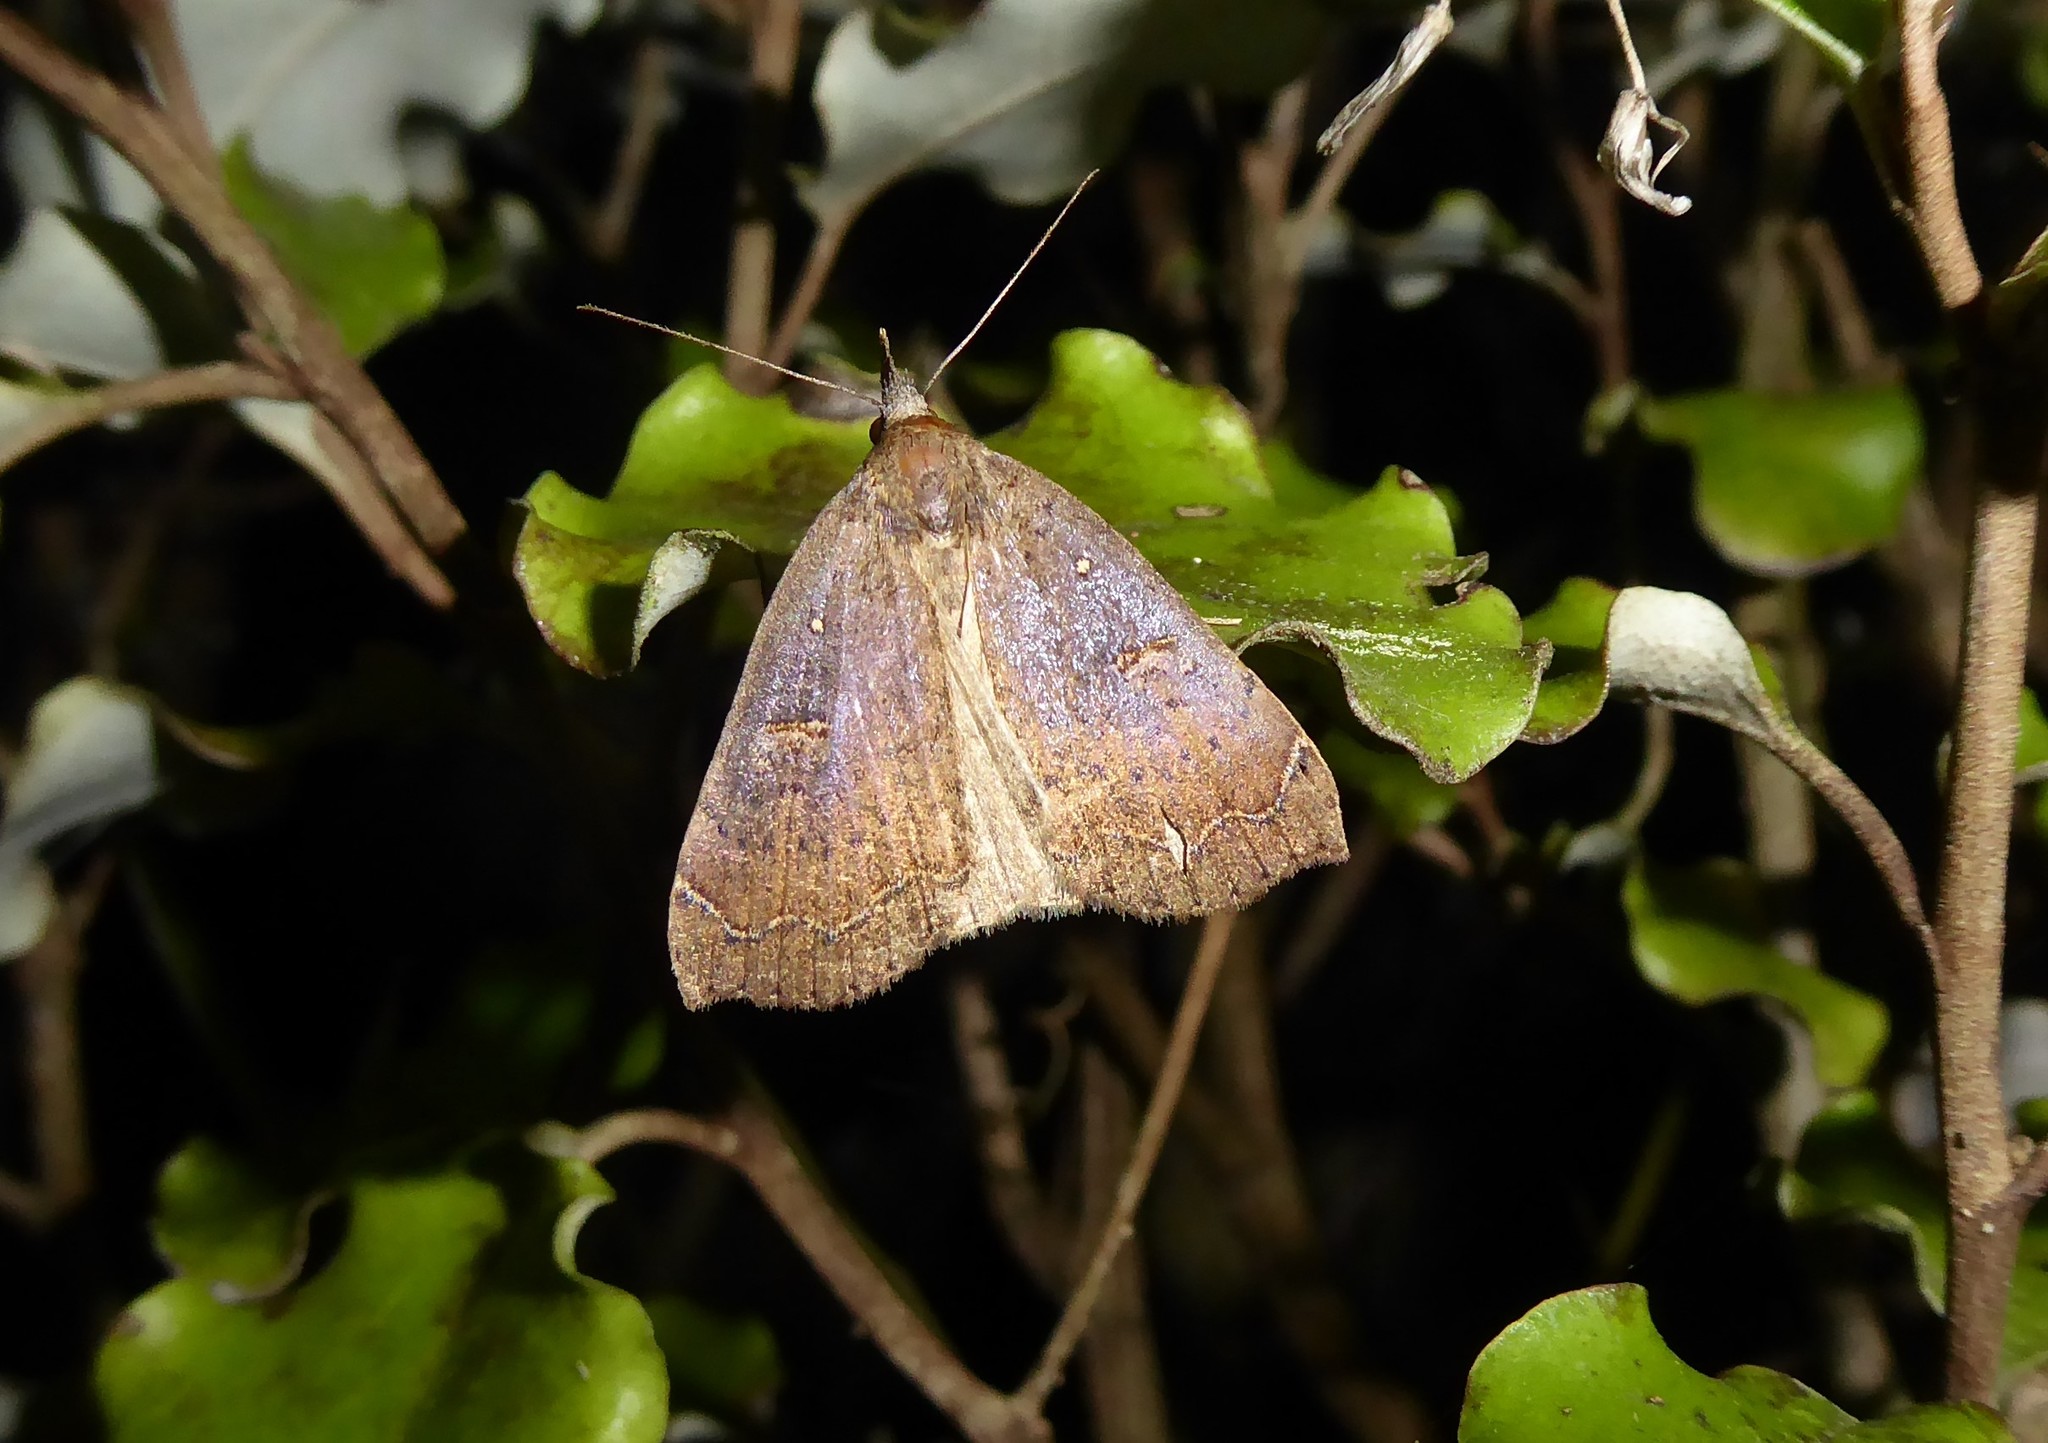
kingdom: Animalia
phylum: Arthropoda
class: Insecta
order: Lepidoptera
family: Erebidae
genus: Rhapsa
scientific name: Rhapsa scotosialis
